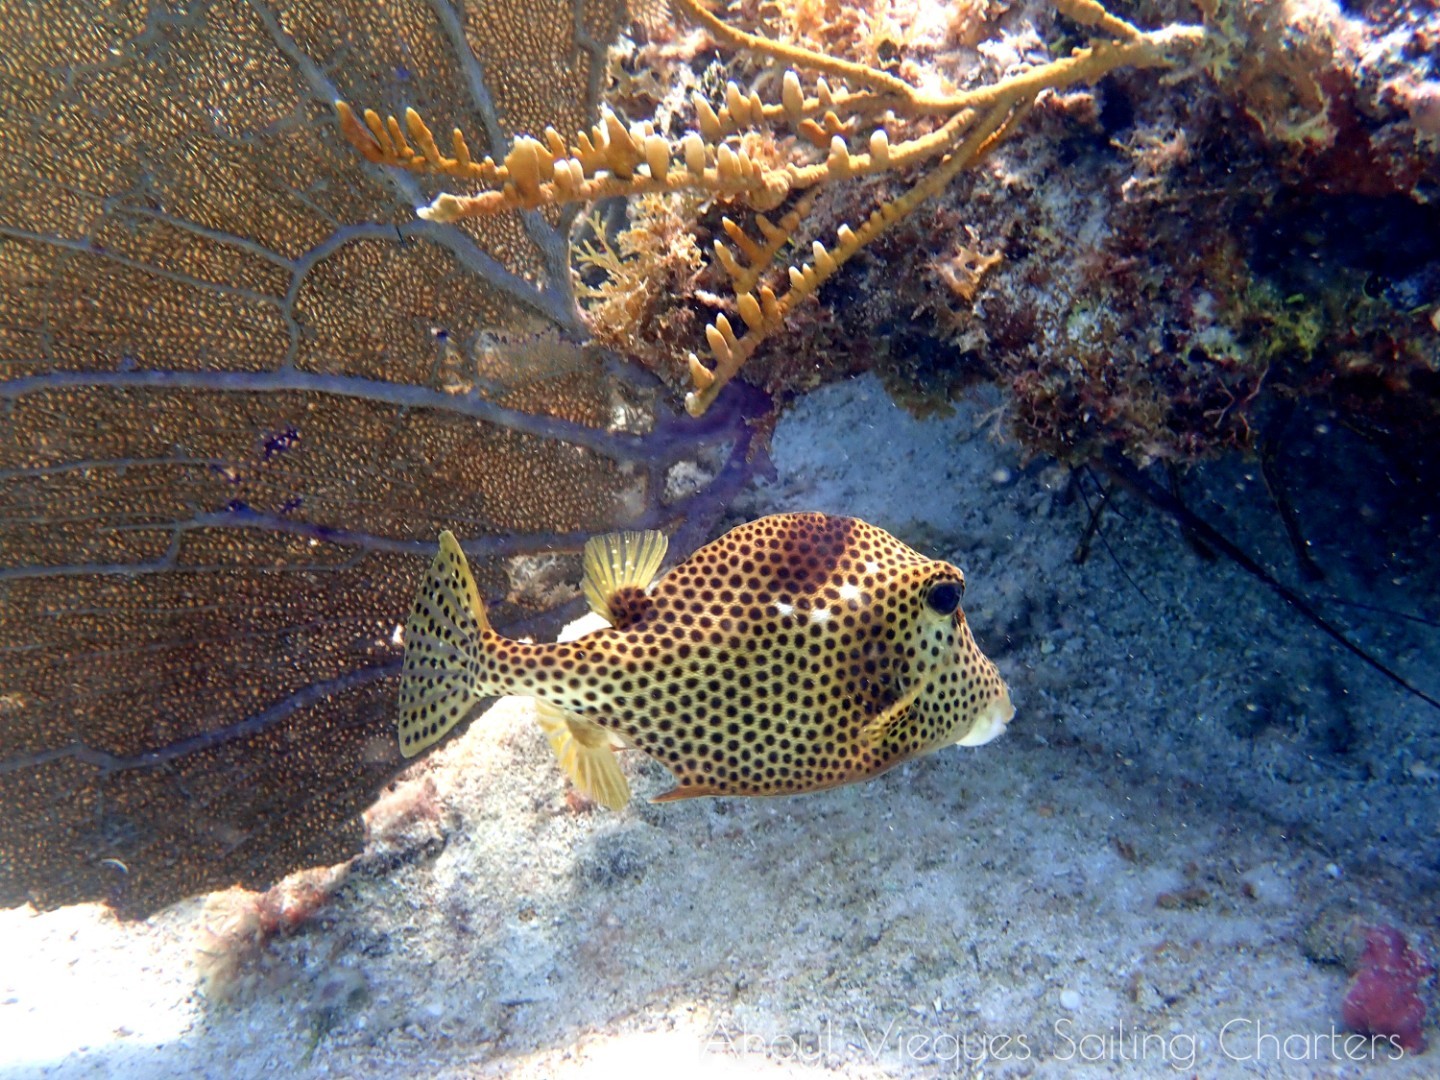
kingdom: Animalia
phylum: Chordata
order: Tetraodontiformes
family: Ostraciidae
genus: Lactophrys
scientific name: Lactophrys bicaudalis
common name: Spotted trunkfish
